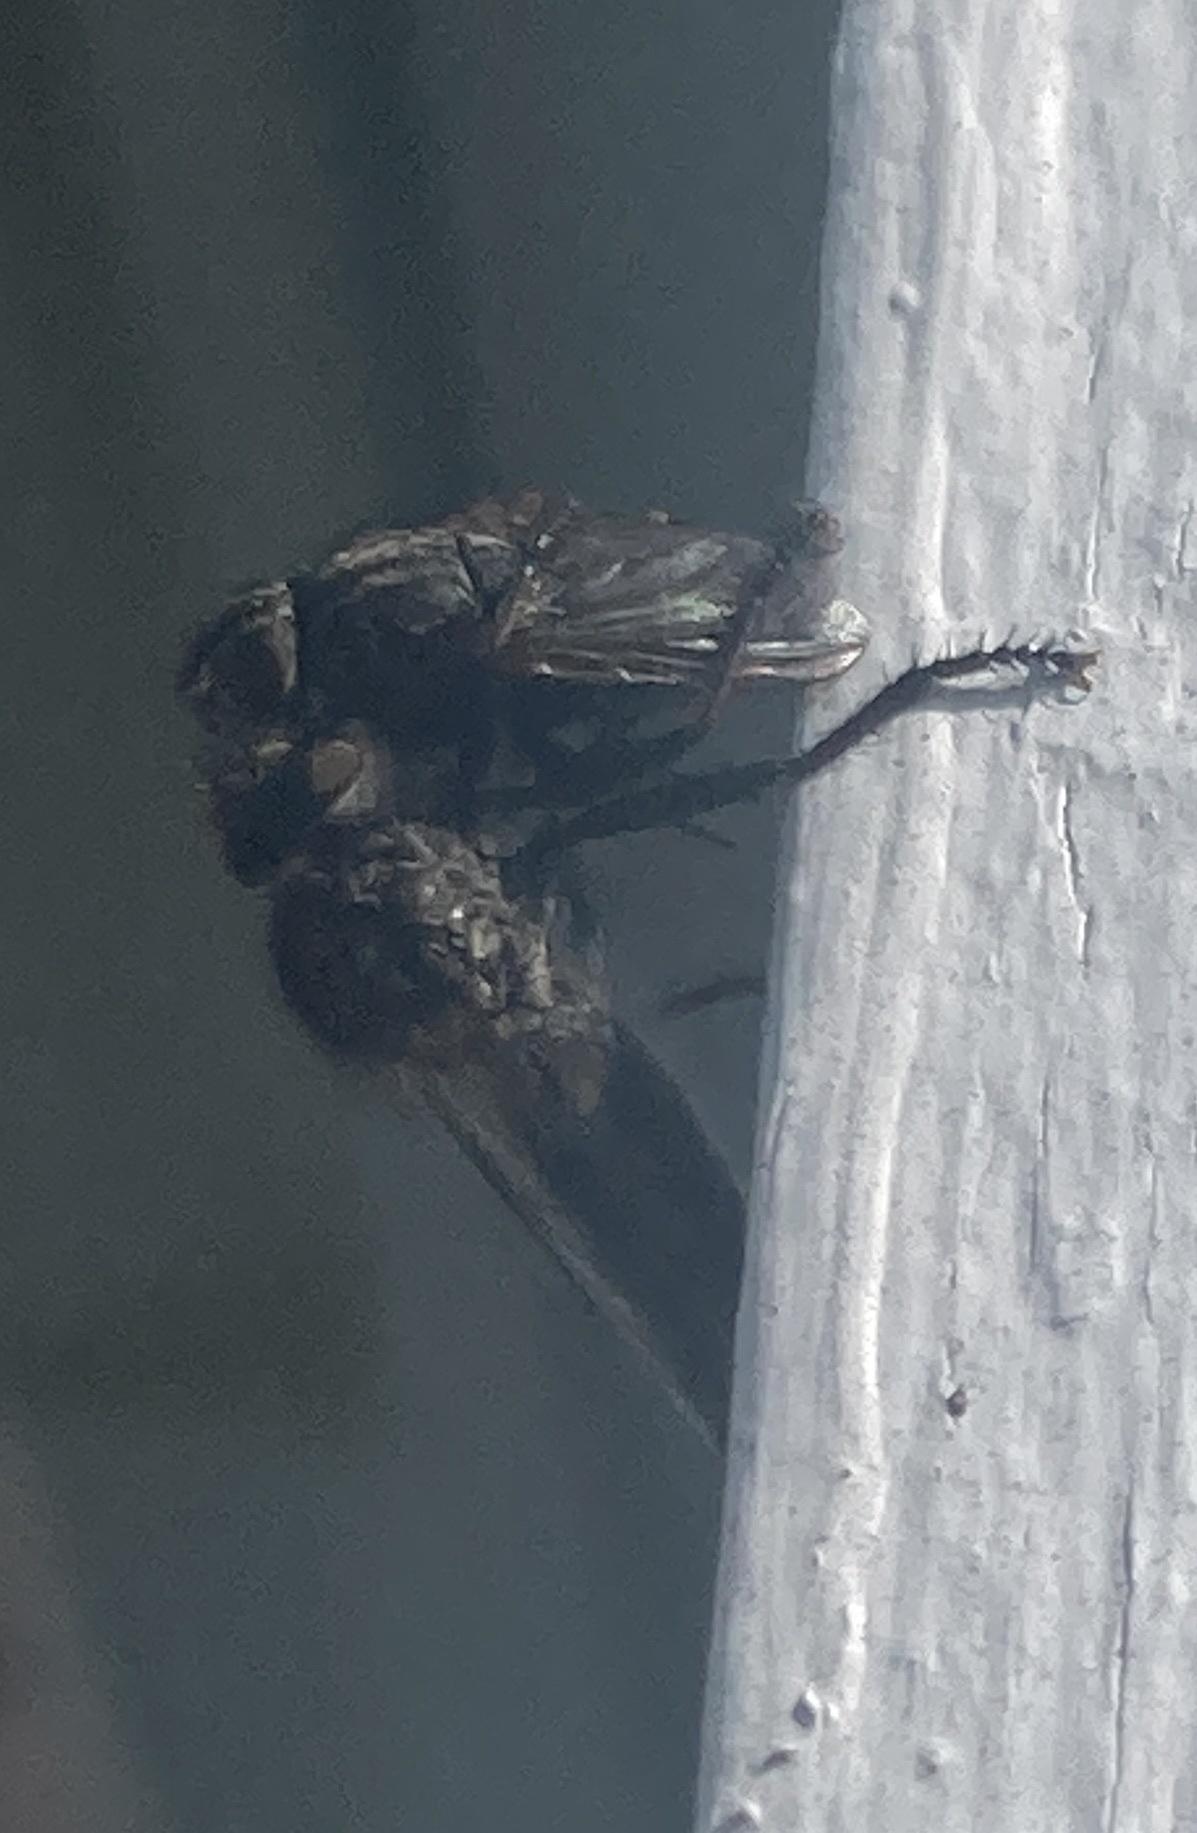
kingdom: Animalia
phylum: Arthropoda
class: Insecta
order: Diptera
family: Asilidae
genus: Efferia
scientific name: Efferia aestuans
